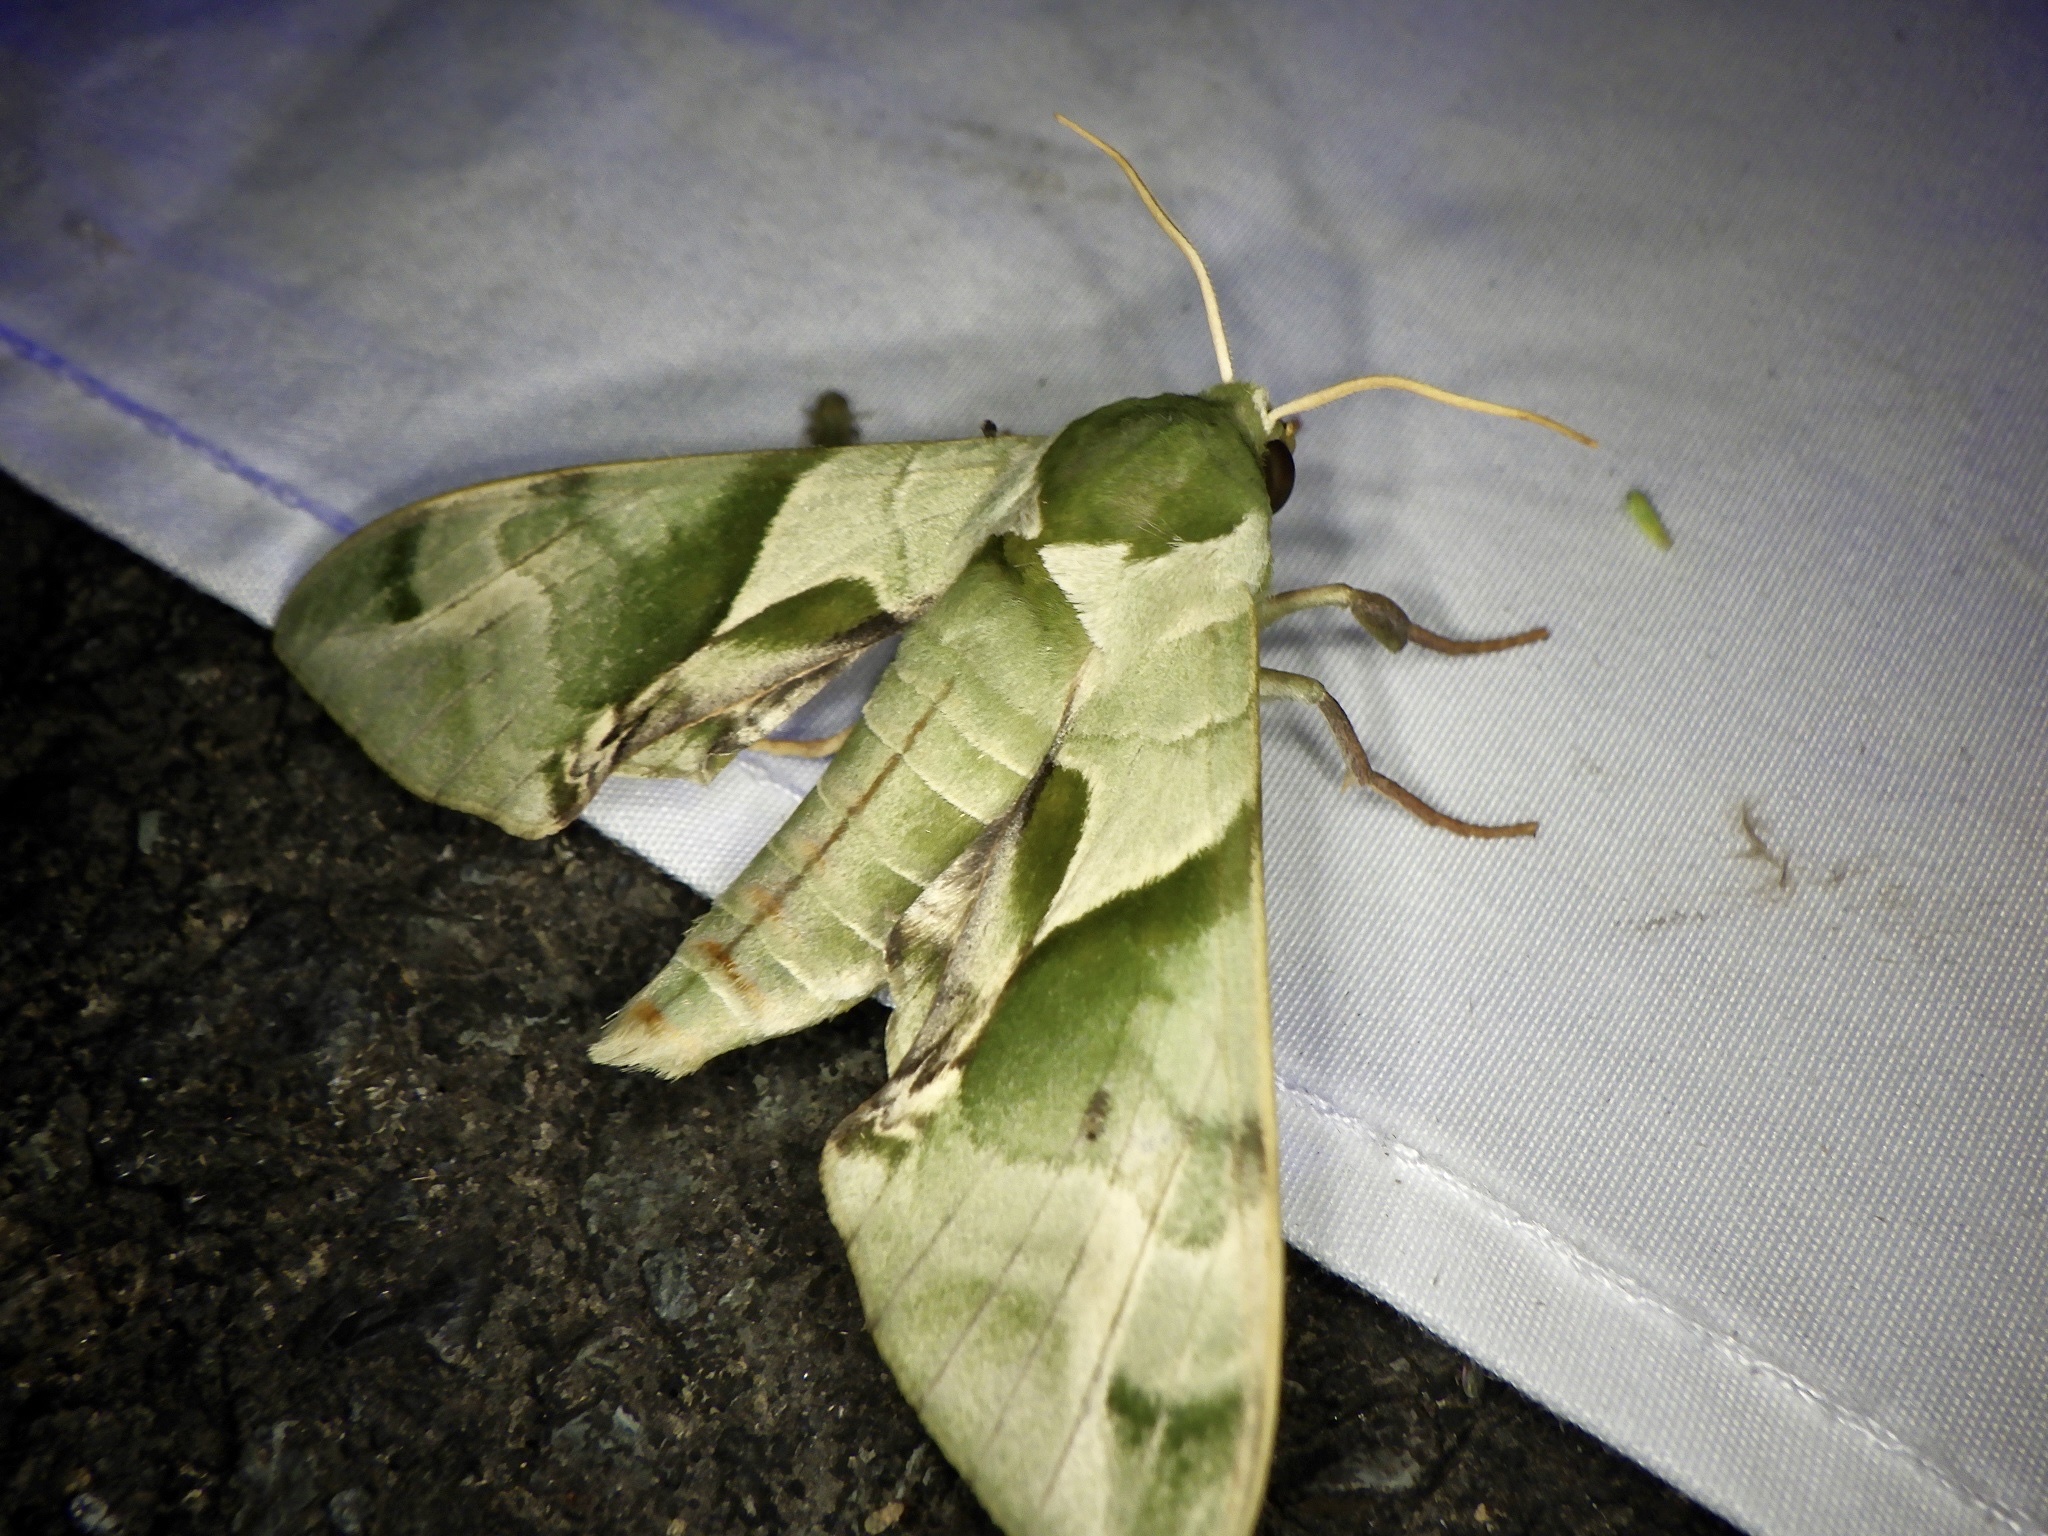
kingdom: Animalia
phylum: Arthropoda
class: Insecta
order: Lepidoptera
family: Sphingidae
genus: Callambulyx
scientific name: Callambulyx tatarinovii
